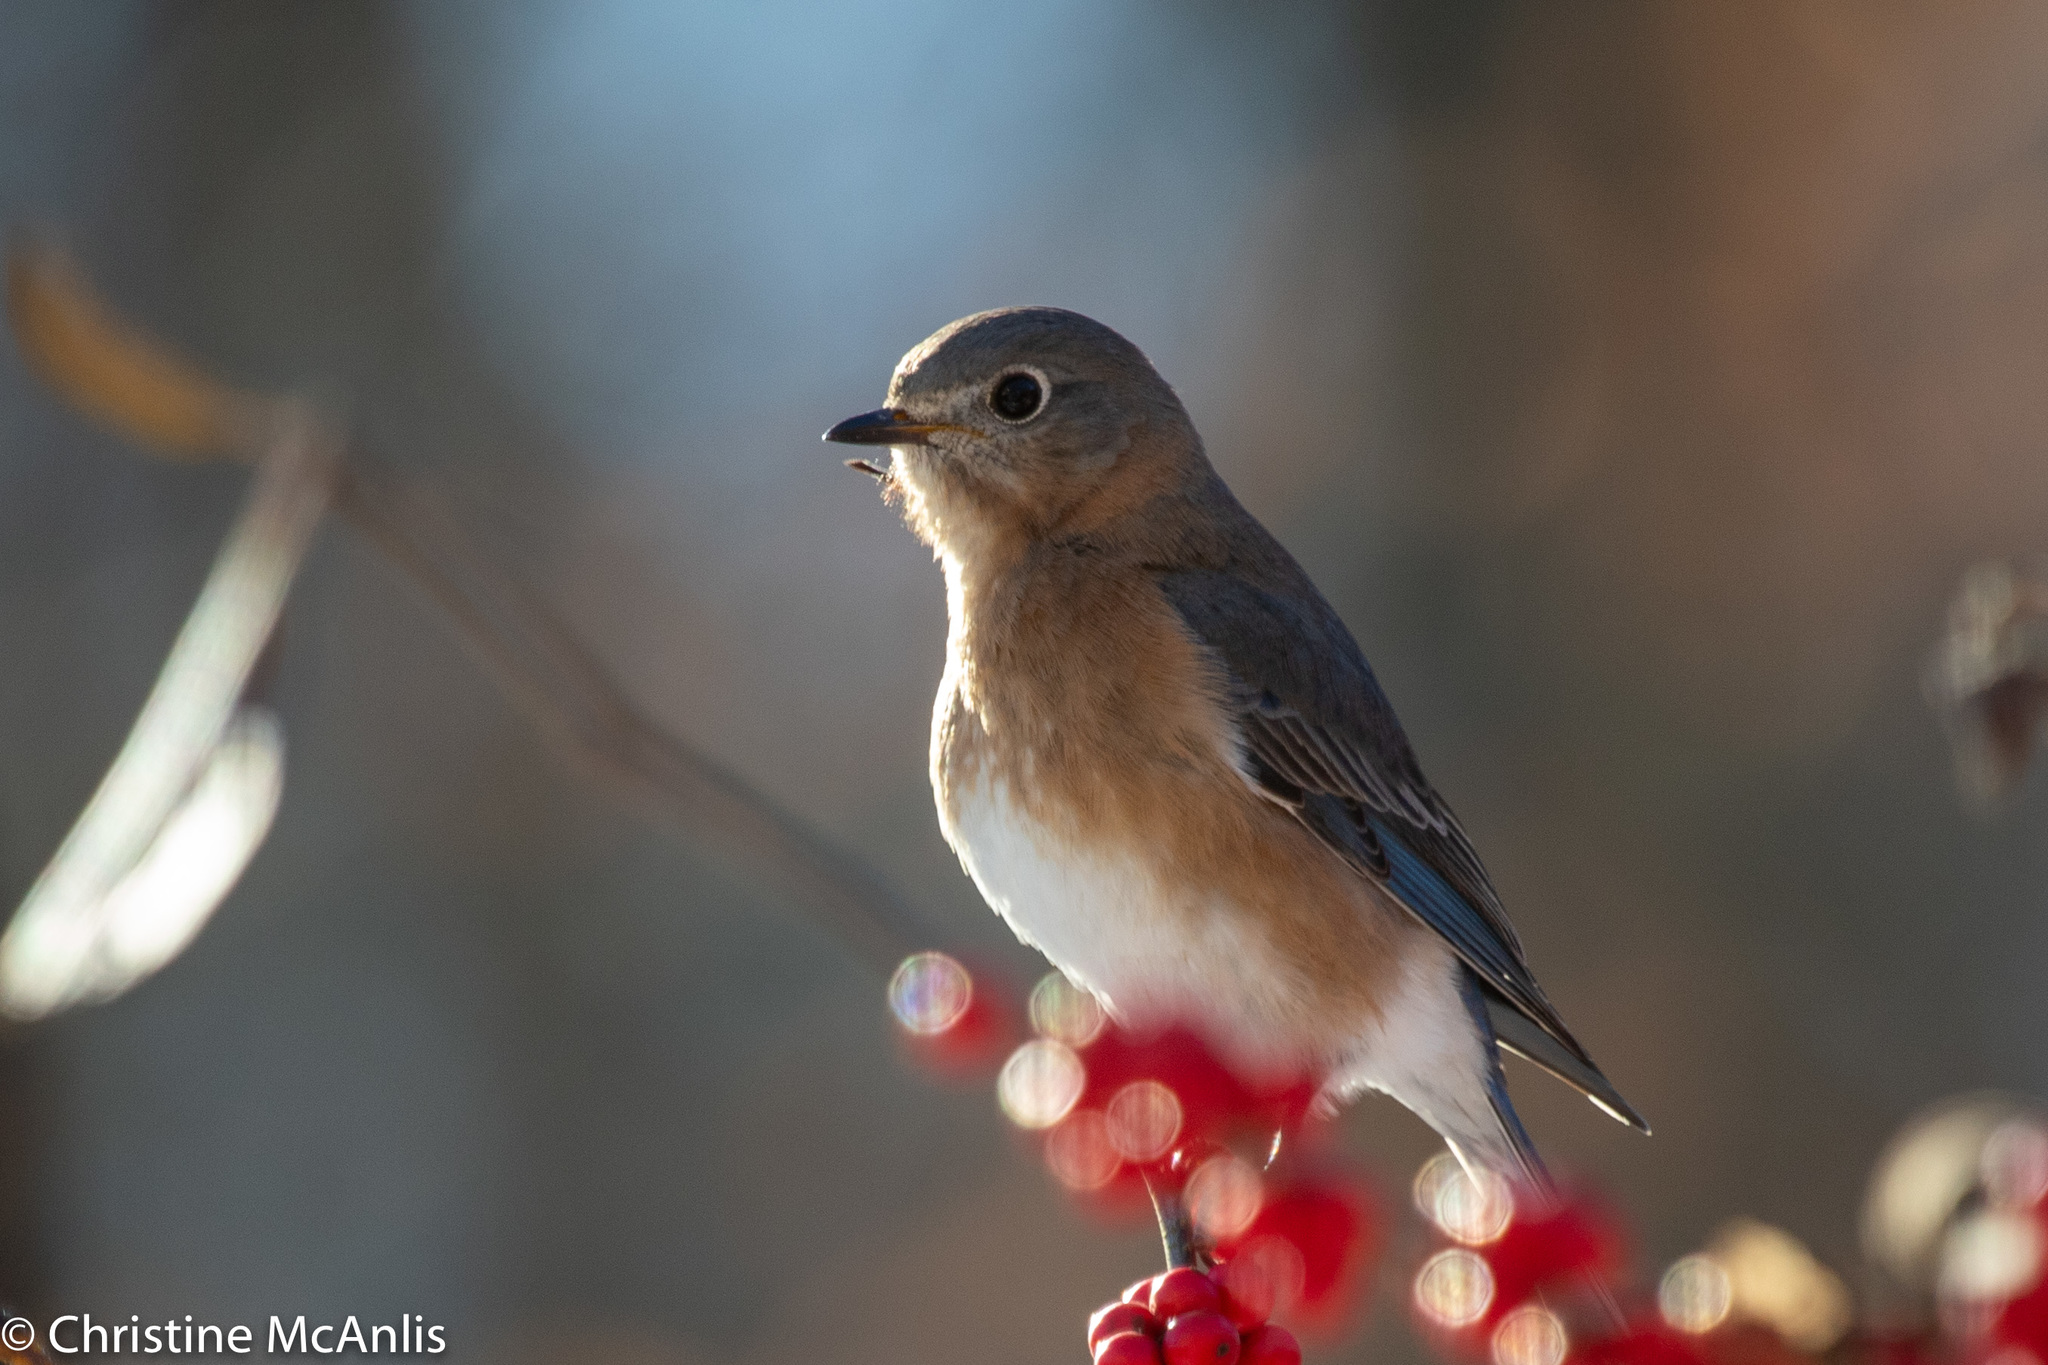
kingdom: Animalia
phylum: Chordata
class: Aves
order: Passeriformes
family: Turdidae
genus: Sialia
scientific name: Sialia sialis
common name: Eastern bluebird
